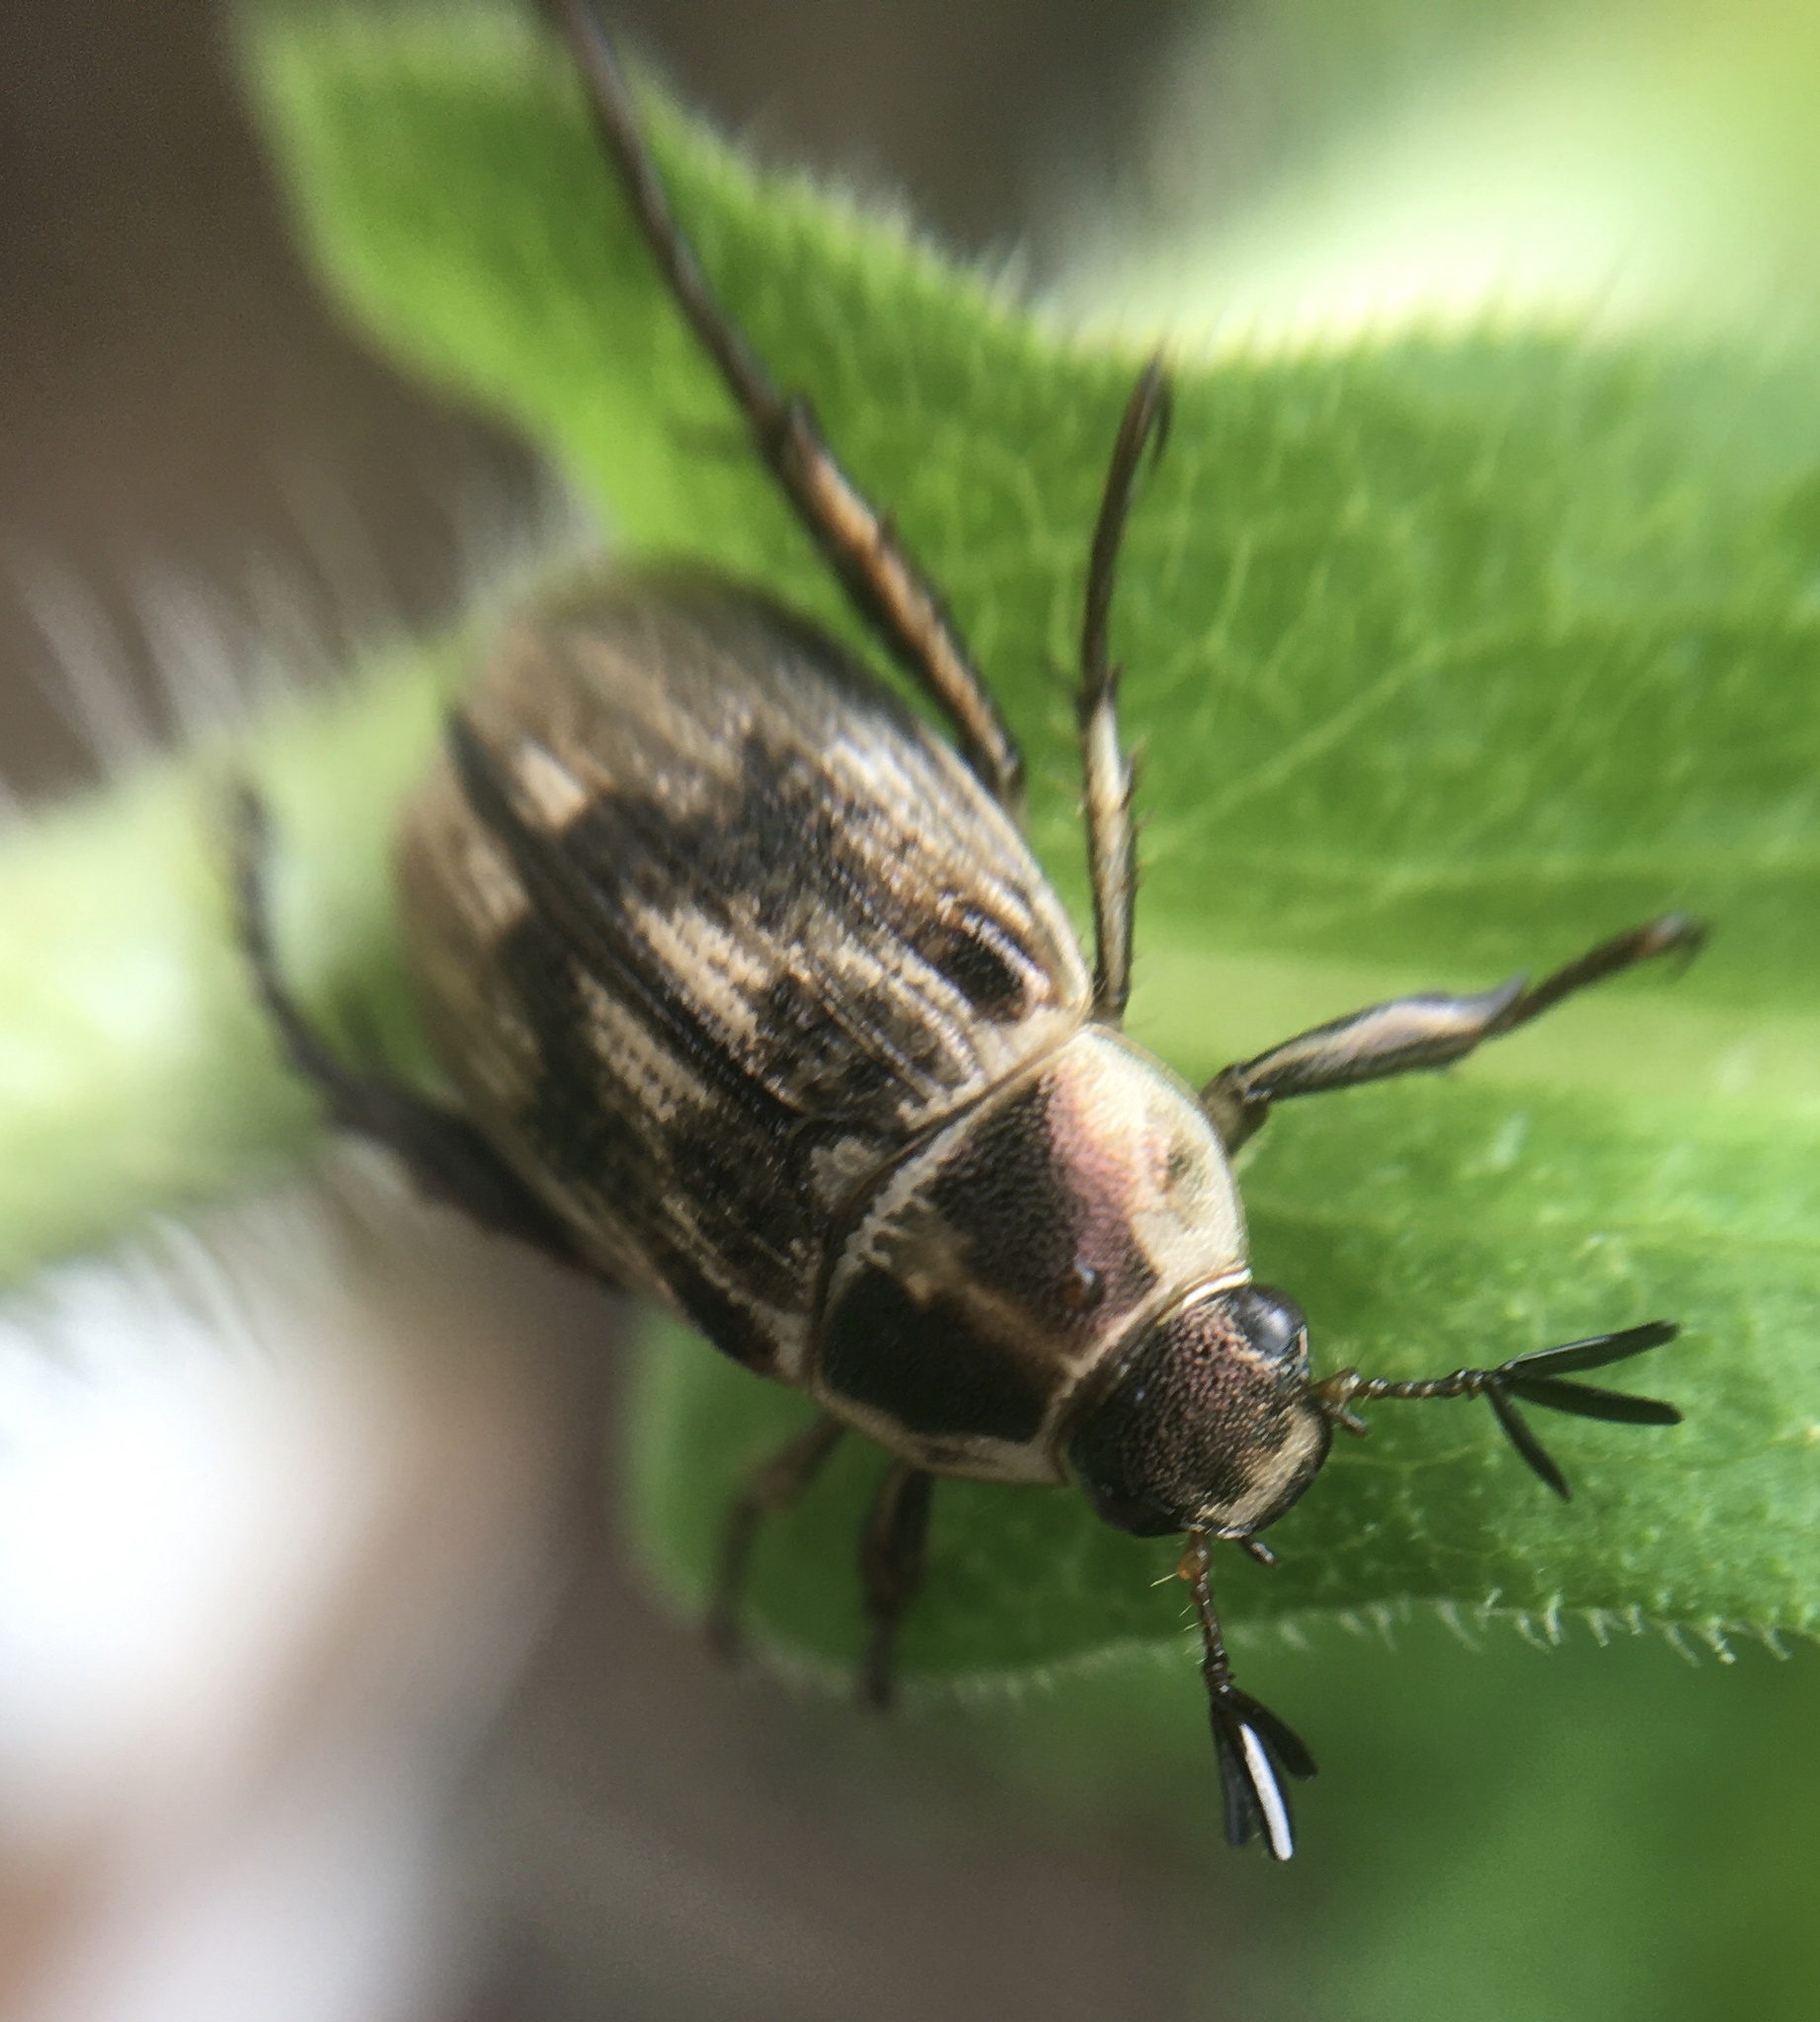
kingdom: Animalia
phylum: Arthropoda
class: Insecta
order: Coleoptera
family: Scarabaeidae
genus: Exomala
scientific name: Exomala orientalis
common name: Oriental beetle
